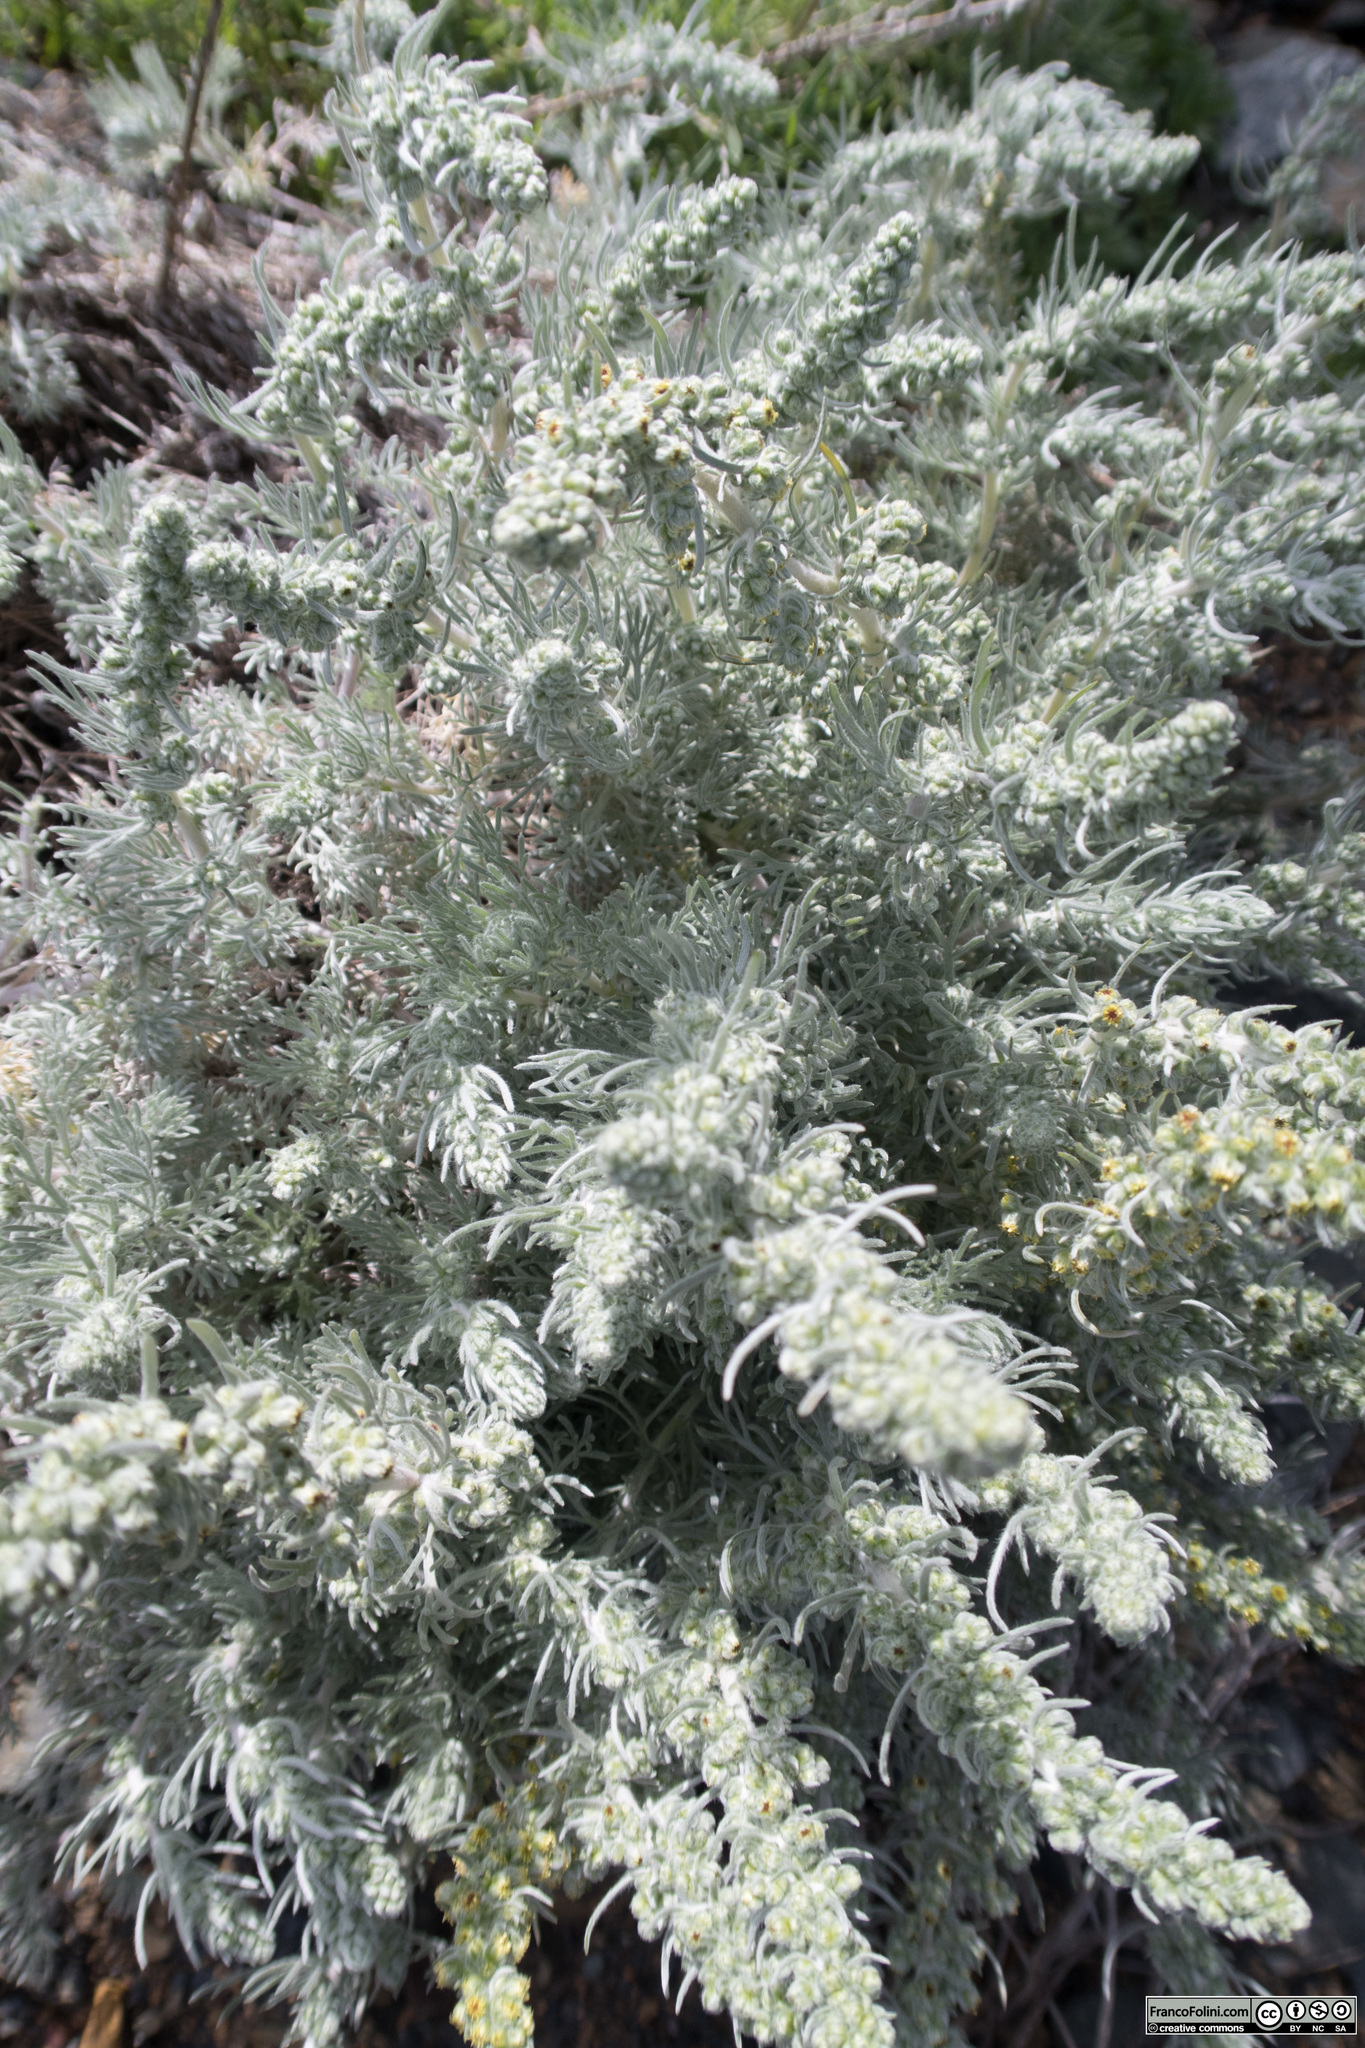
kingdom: Plantae
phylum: Tracheophyta
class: Magnoliopsida
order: Asterales
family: Asteraceae
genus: Artemisia
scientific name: Artemisia pycnocephala
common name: Coastal sagewort
